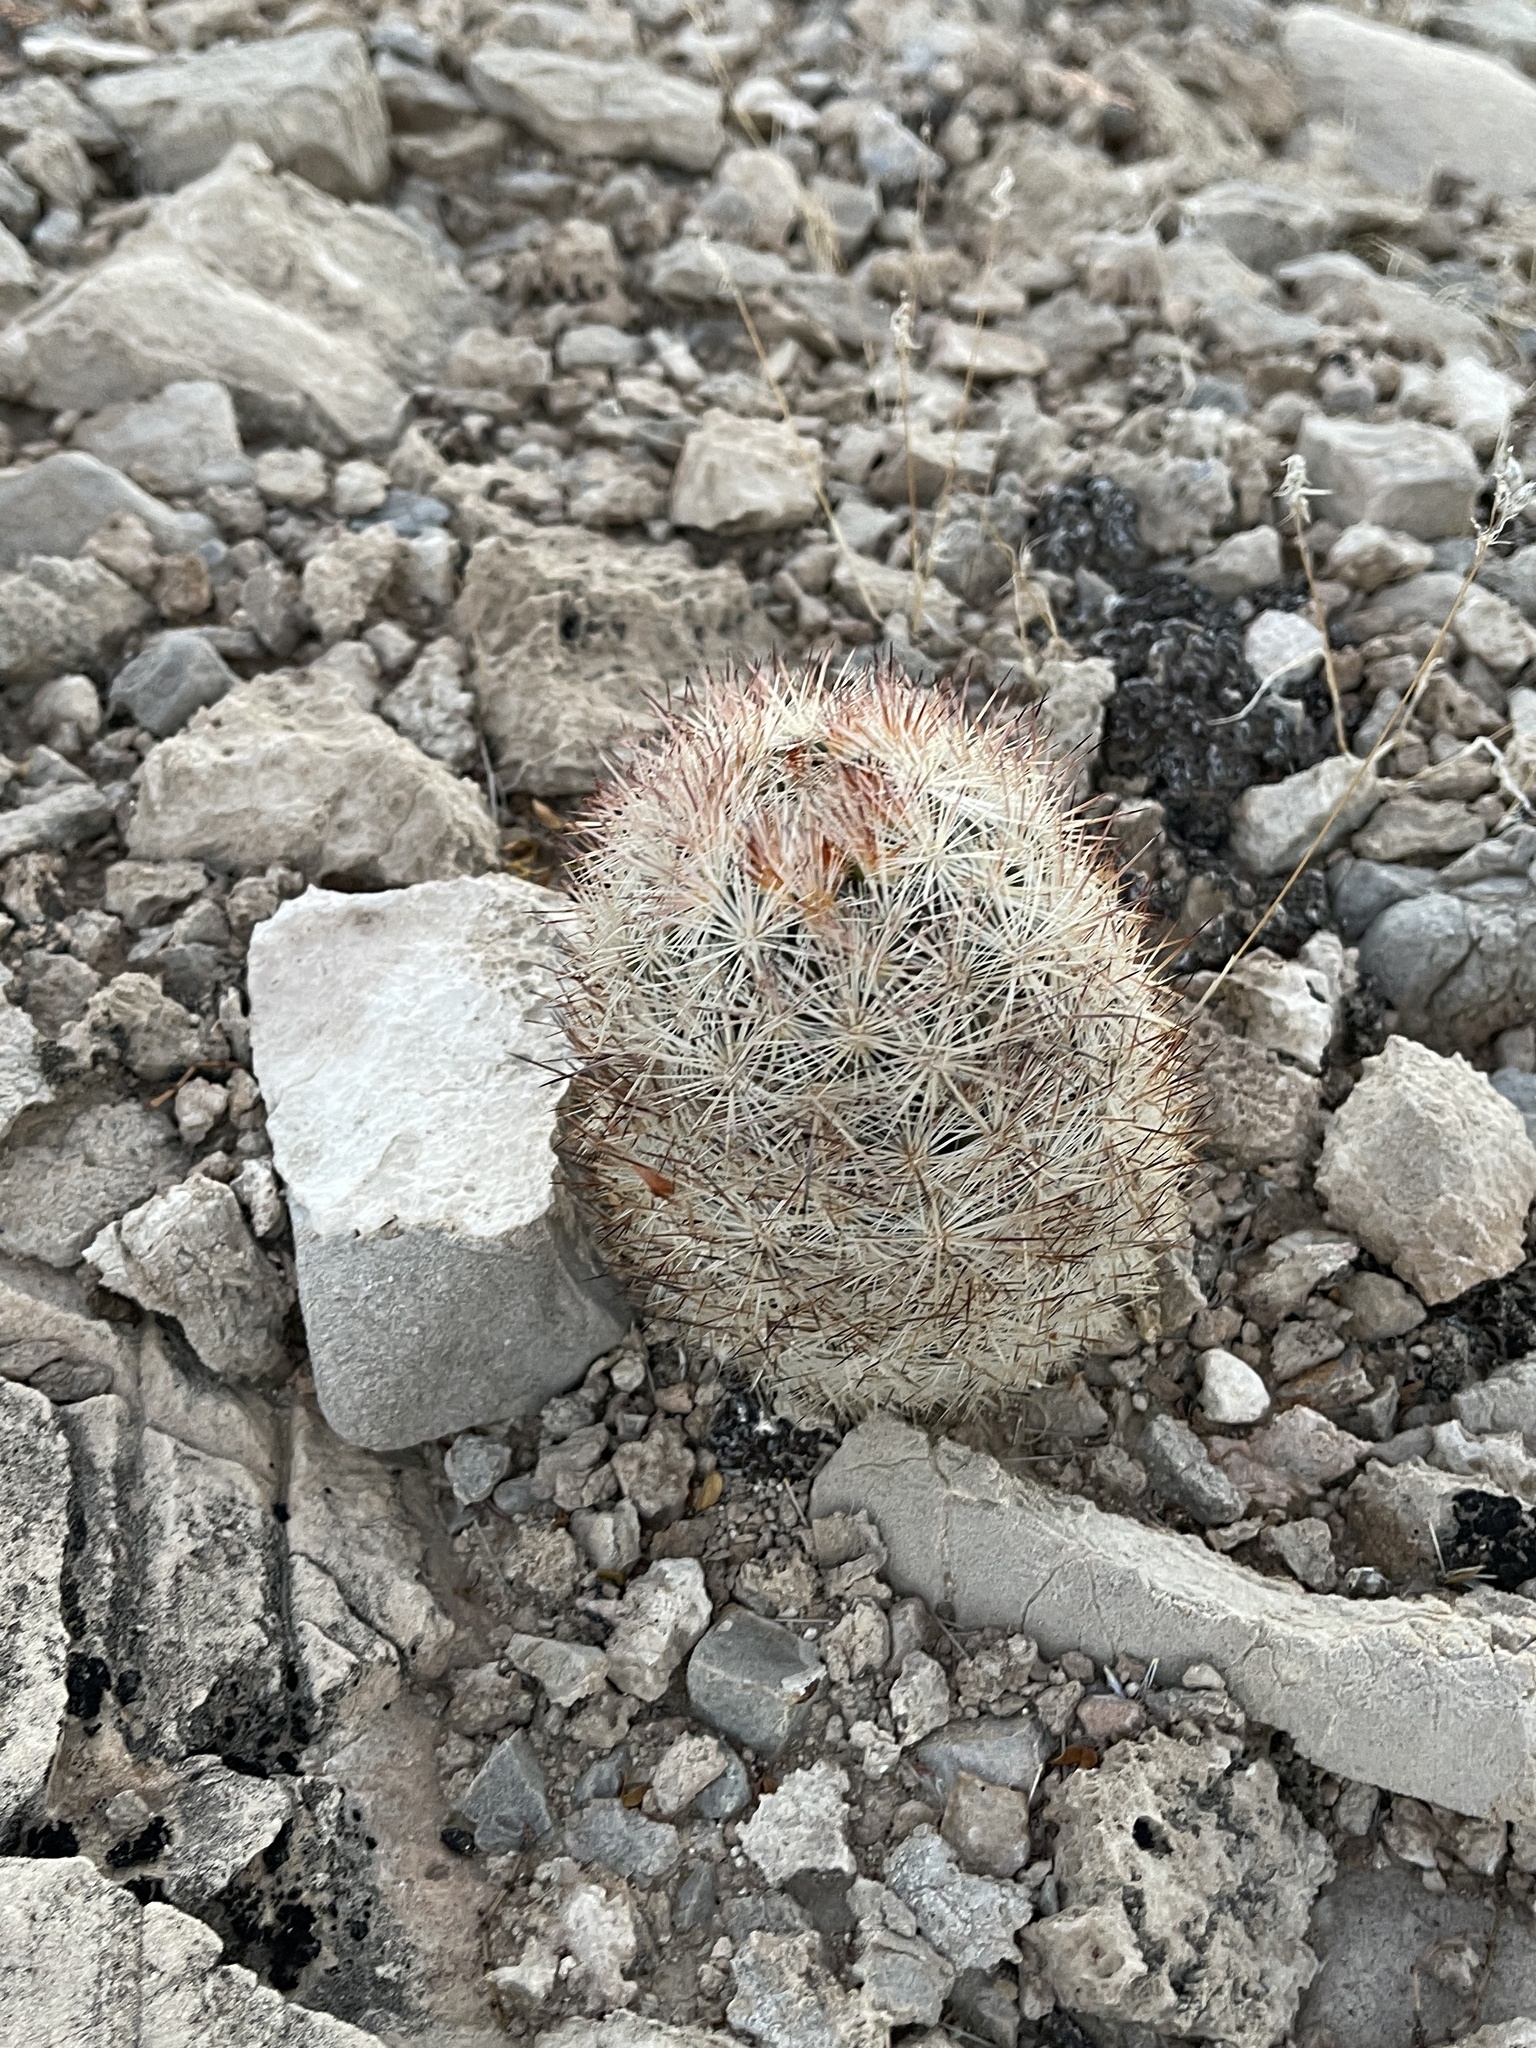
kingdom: Plantae
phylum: Tracheophyta
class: Magnoliopsida
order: Caryophyllales
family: Cactaceae
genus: Pelecyphora
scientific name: Pelecyphora dasyacantha
